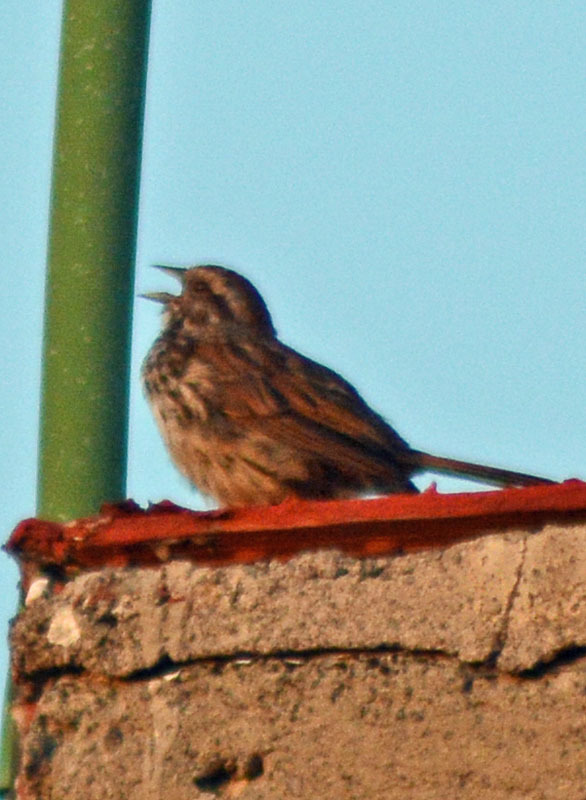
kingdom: Animalia
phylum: Chordata
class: Aves
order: Passeriformes
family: Passerellidae
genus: Melospiza
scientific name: Melospiza melodia
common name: Song sparrow
